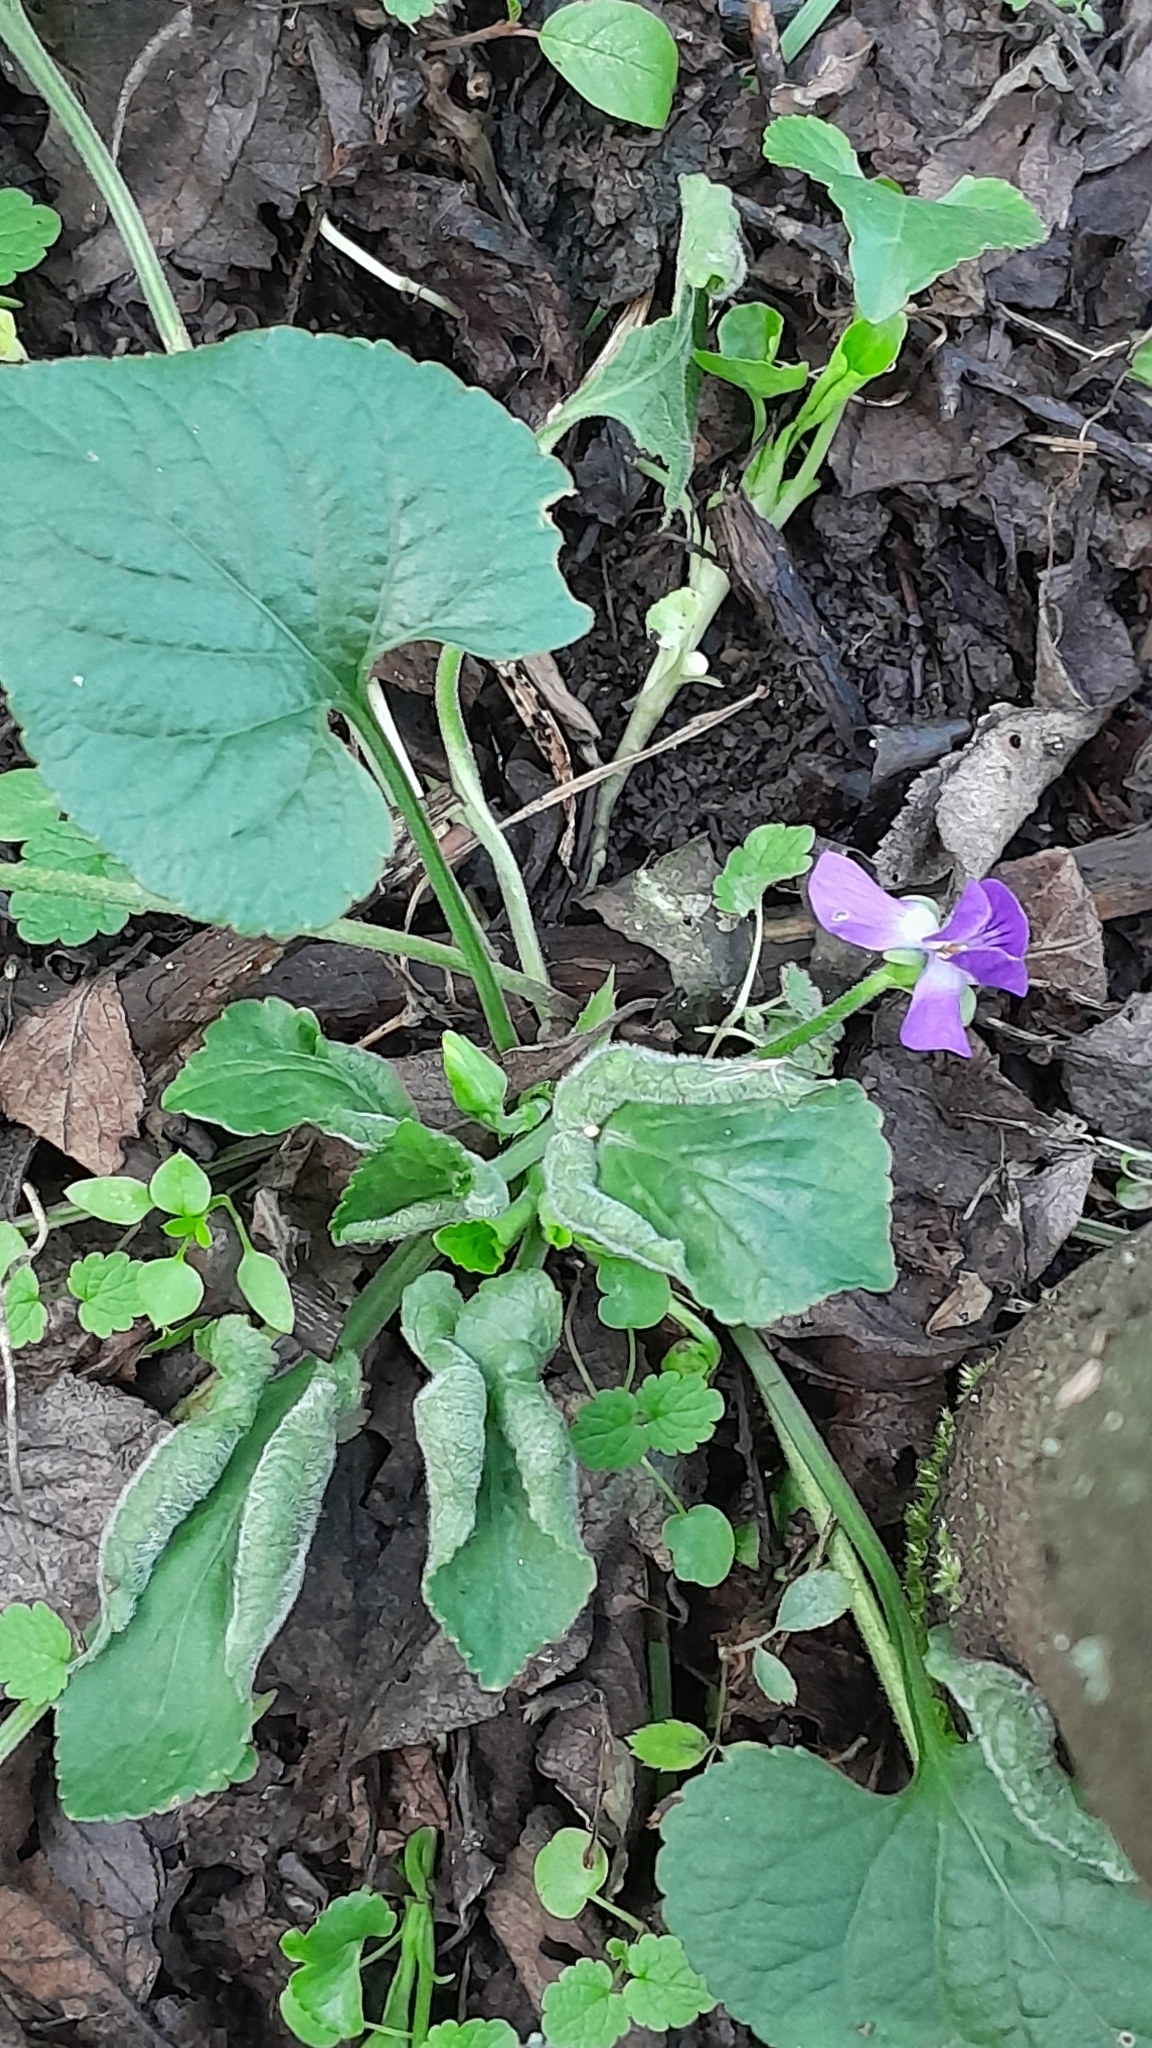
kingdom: Plantae
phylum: Tracheophyta
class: Magnoliopsida
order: Malpighiales
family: Violaceae
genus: Viola
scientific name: Viola suavis
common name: Russian violet
